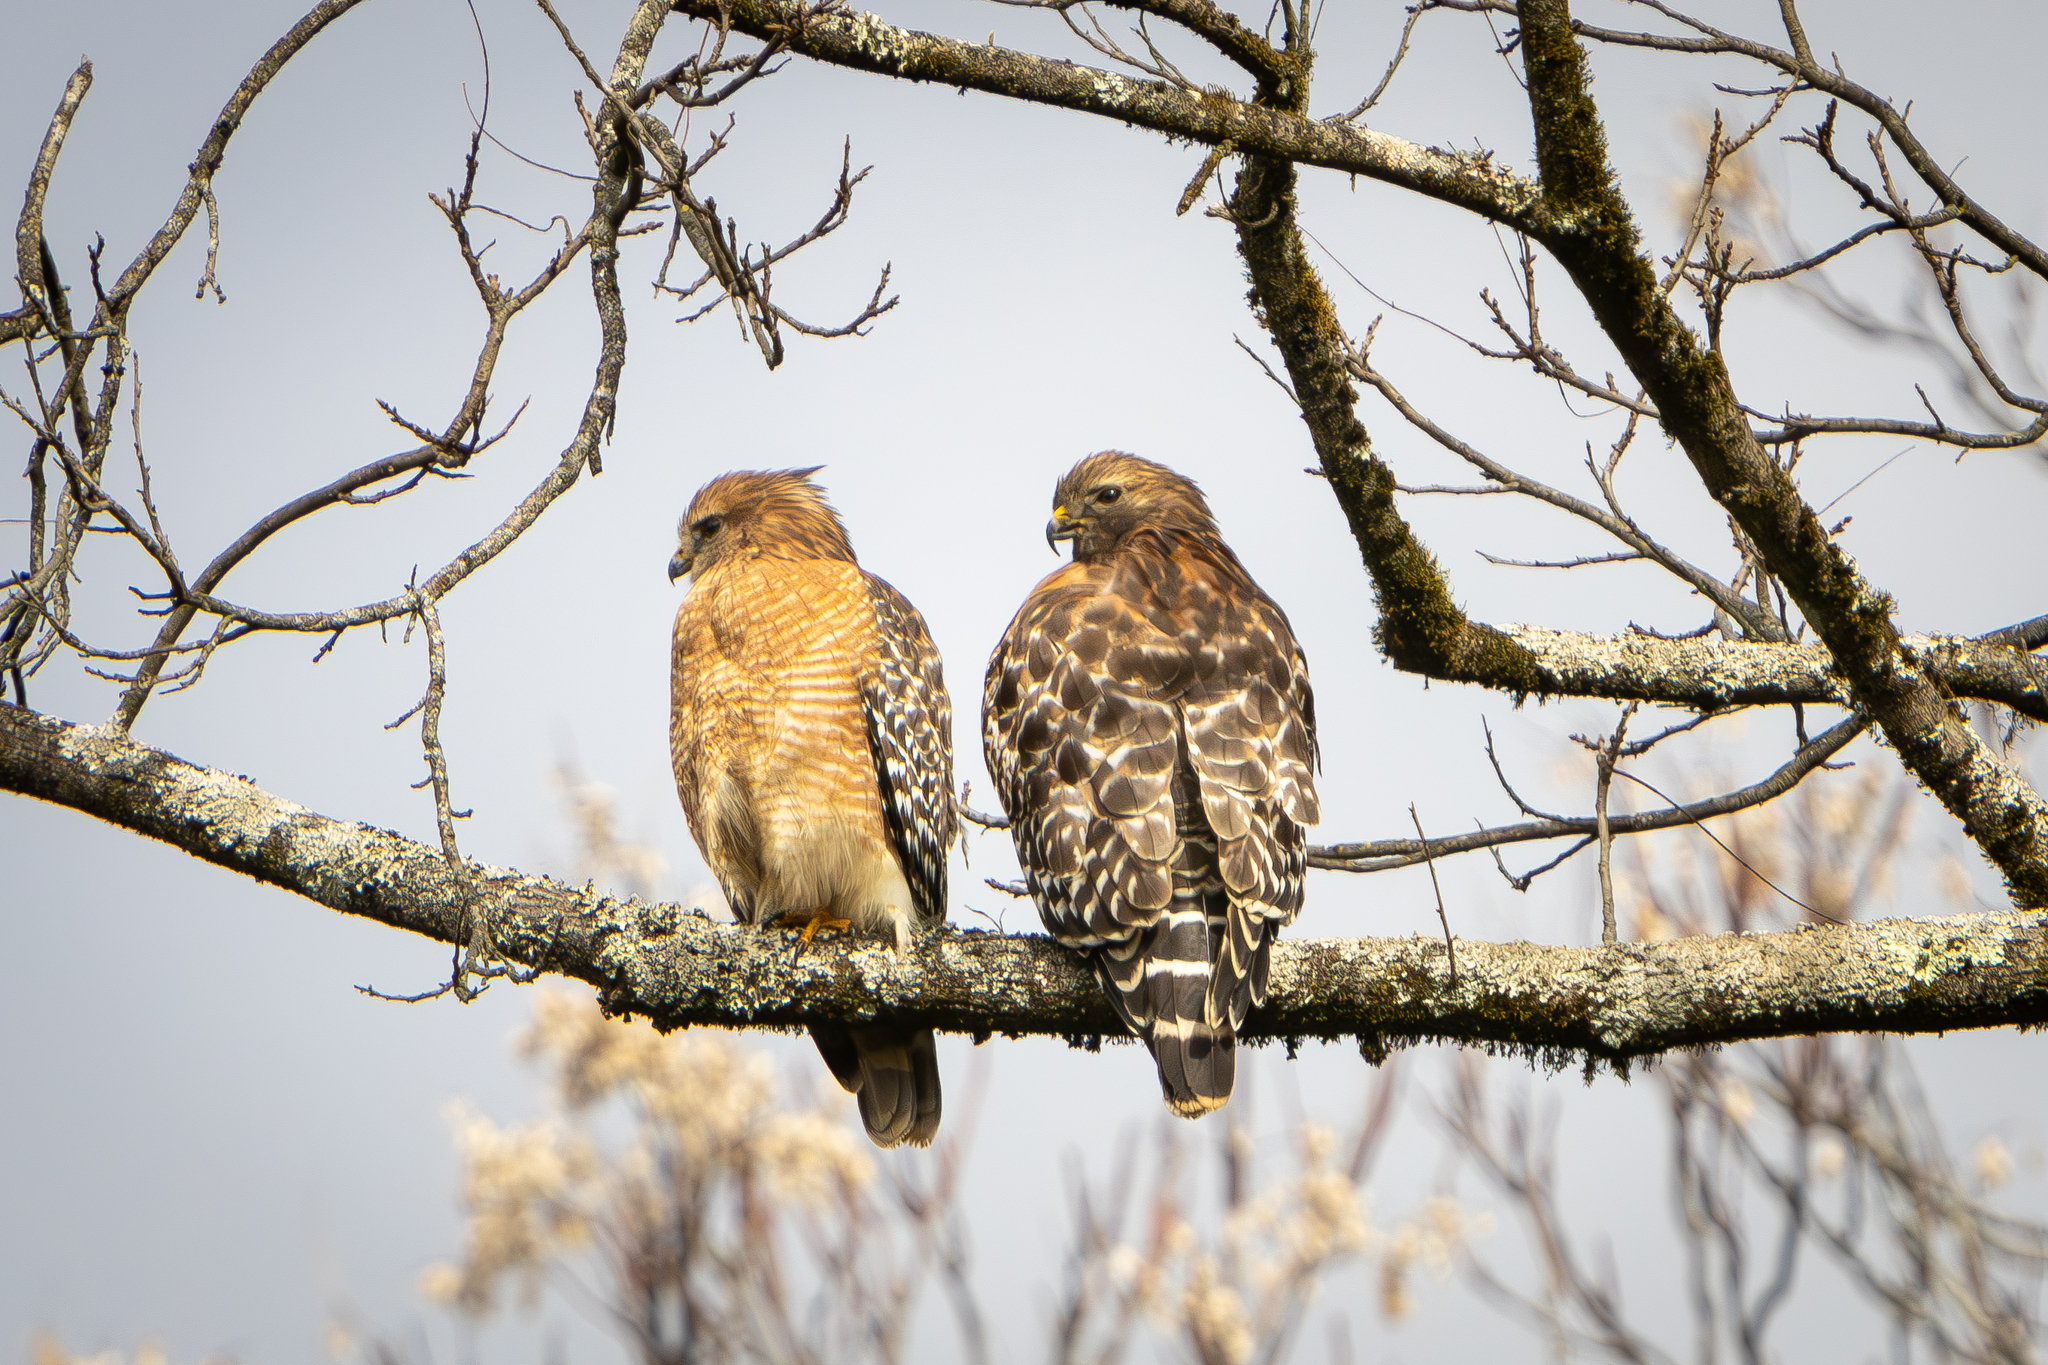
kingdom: Animalia
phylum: Chordata
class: Aves
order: Accipitriformes
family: Accipitridae
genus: Buteo
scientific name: Buteo lineatus
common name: Red-shouldered hawk
